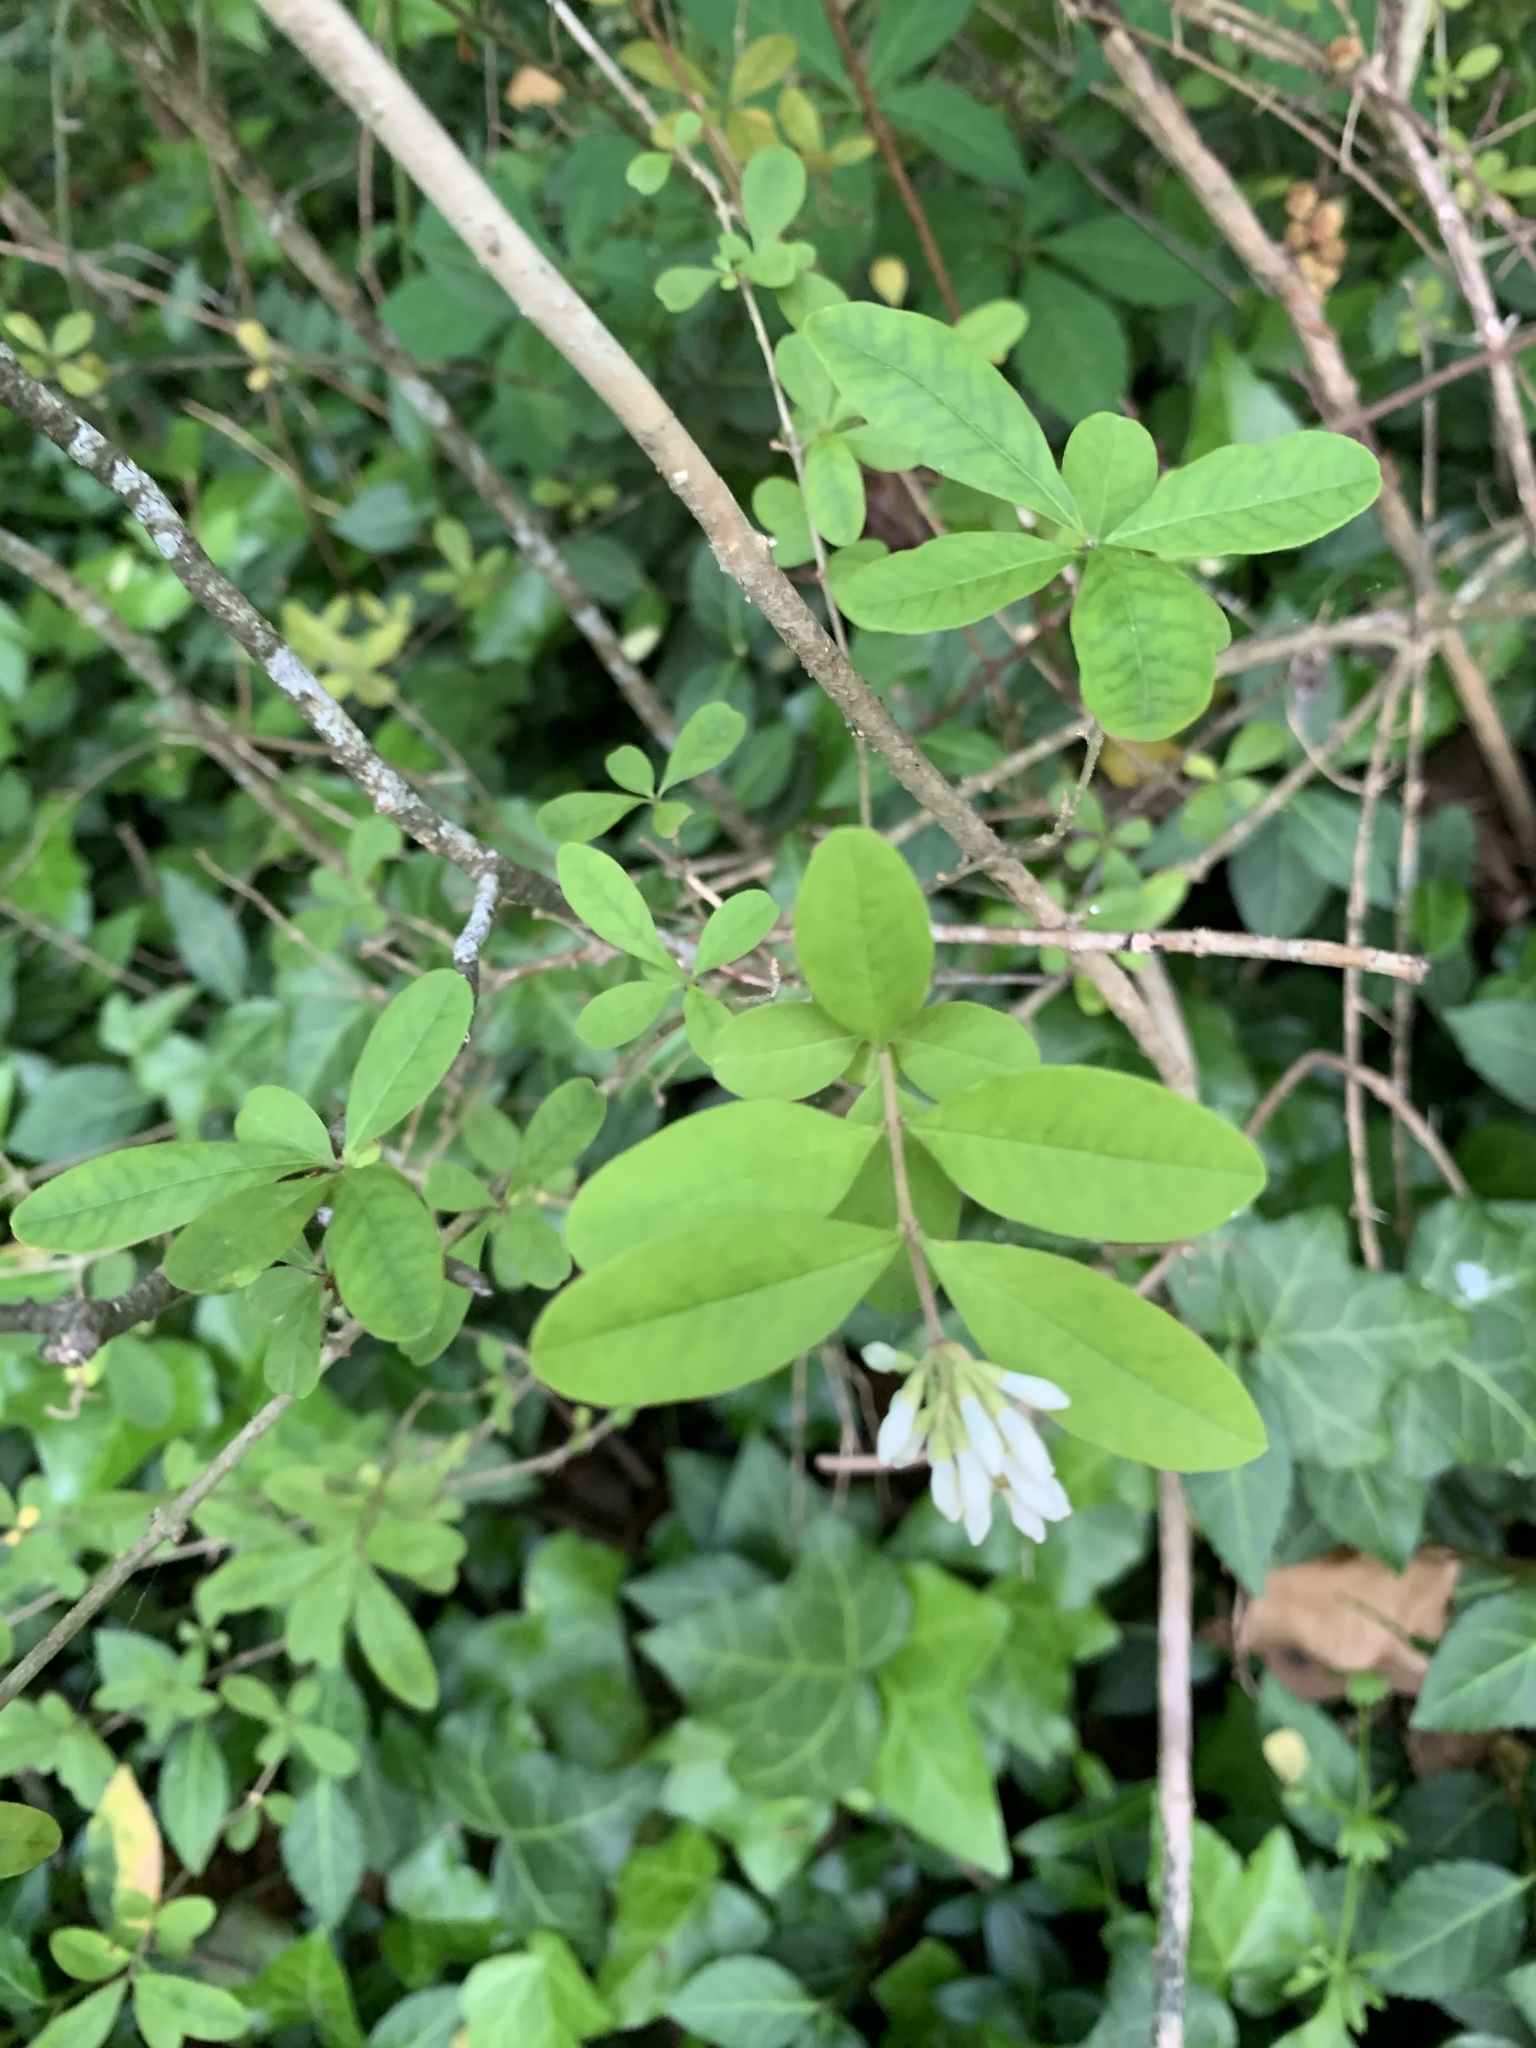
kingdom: Plantae
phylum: Tracheophyta
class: Magnoliopsida
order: Lamiales
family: Oleaceae
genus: Ligustrum
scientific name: Ligustrum obtusifolium
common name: Border privet
